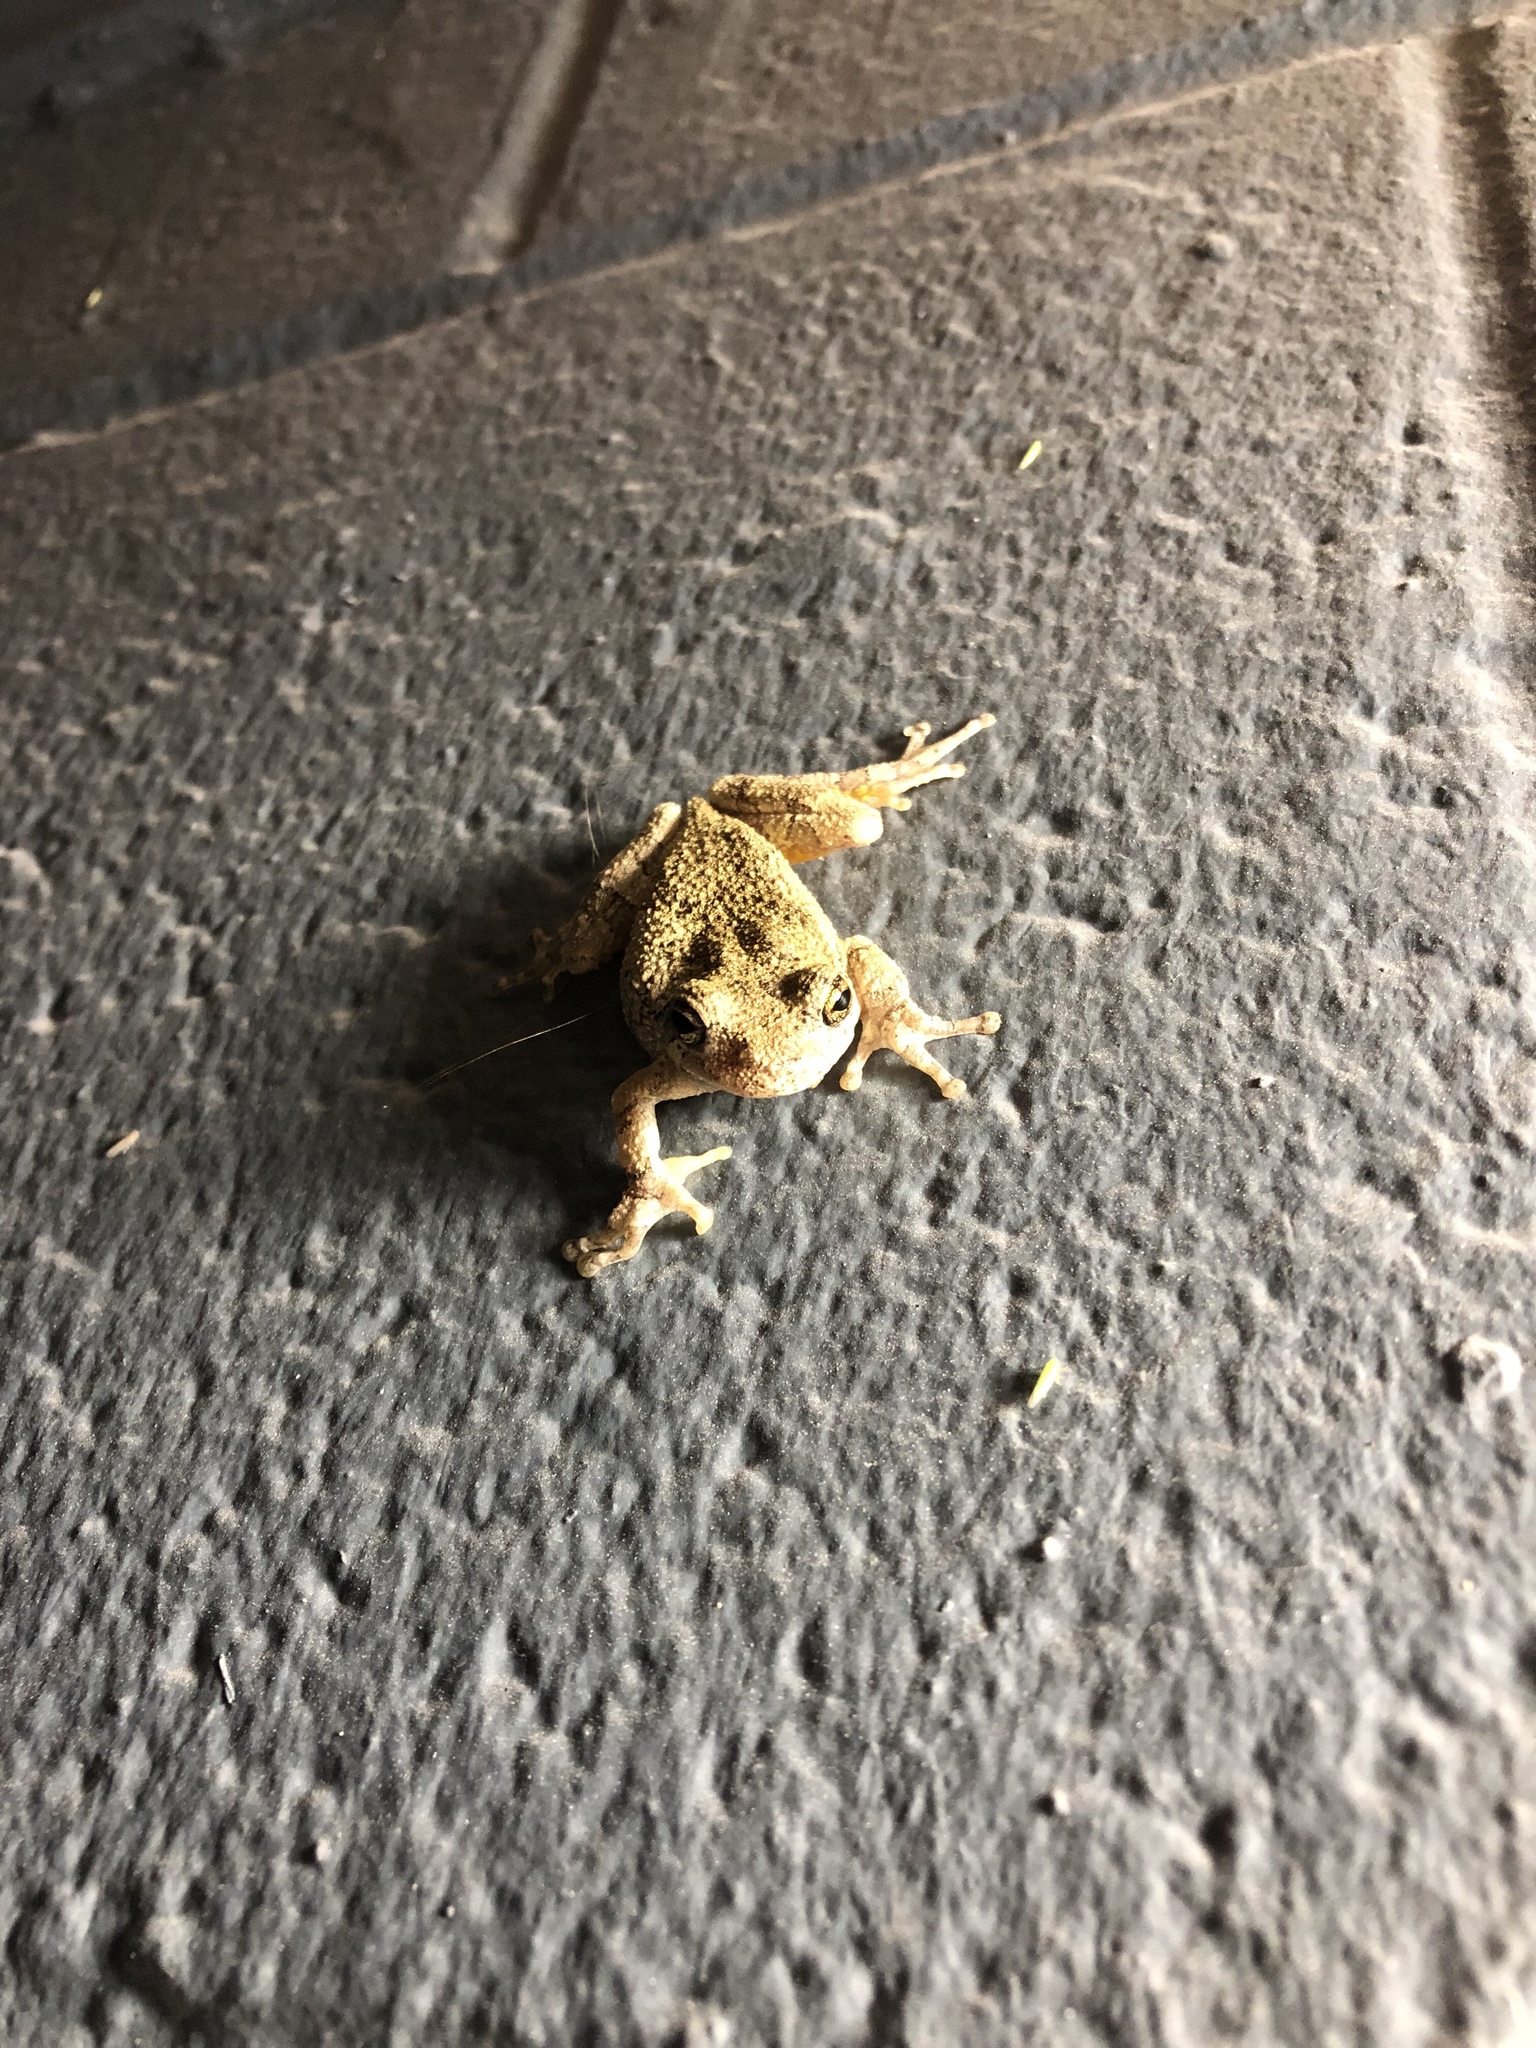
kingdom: Animalia
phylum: Chordata
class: Amphibia
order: Anura
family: Hylidae
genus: Hyla
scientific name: Hyla
